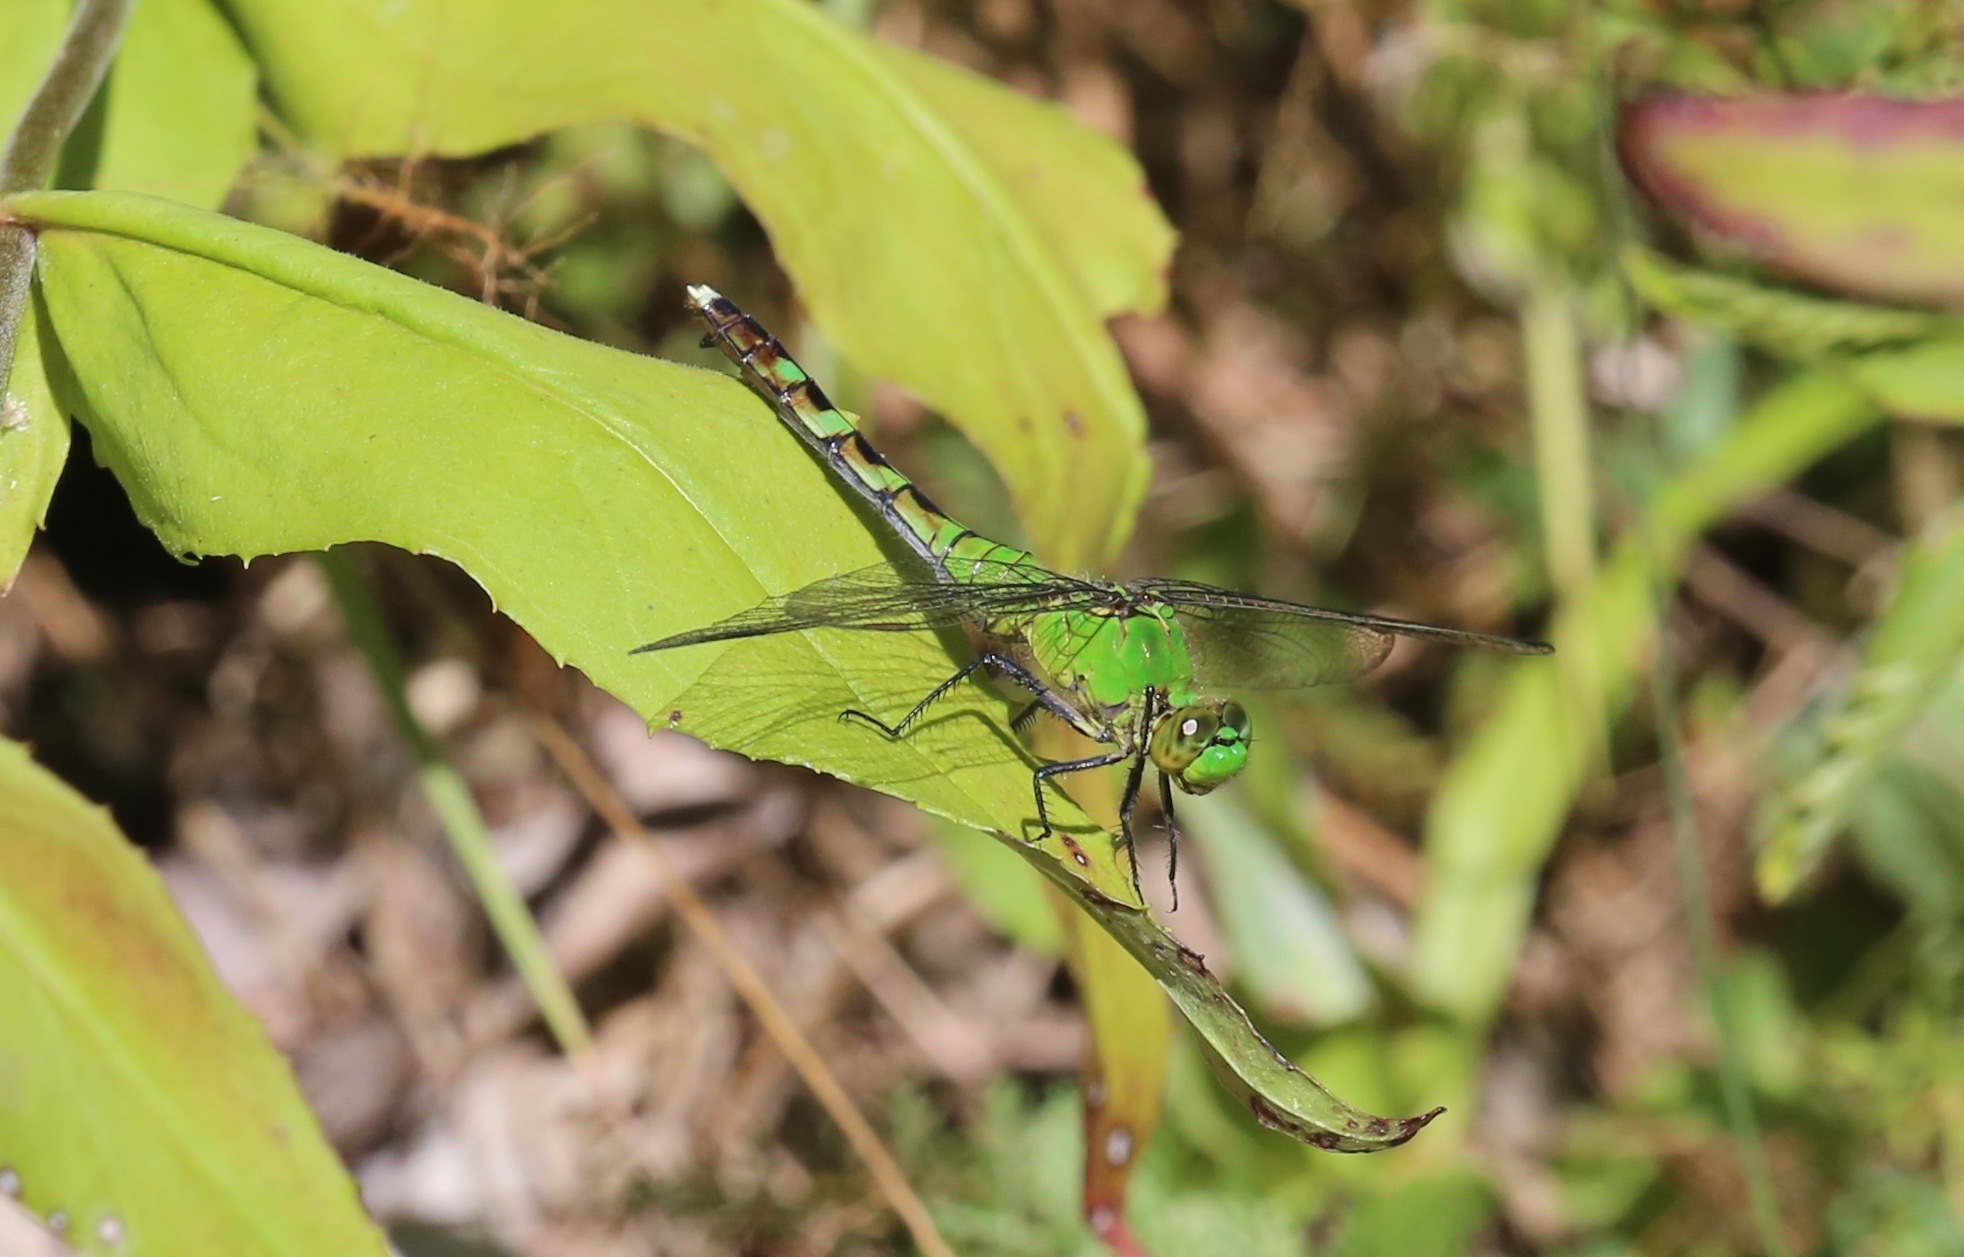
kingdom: Animalia
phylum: Arthropoda
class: Insecta
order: Odonata
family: Libellulidae
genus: Erythemis
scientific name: Erythemis simplicicollis
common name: Eastern pondhawk
